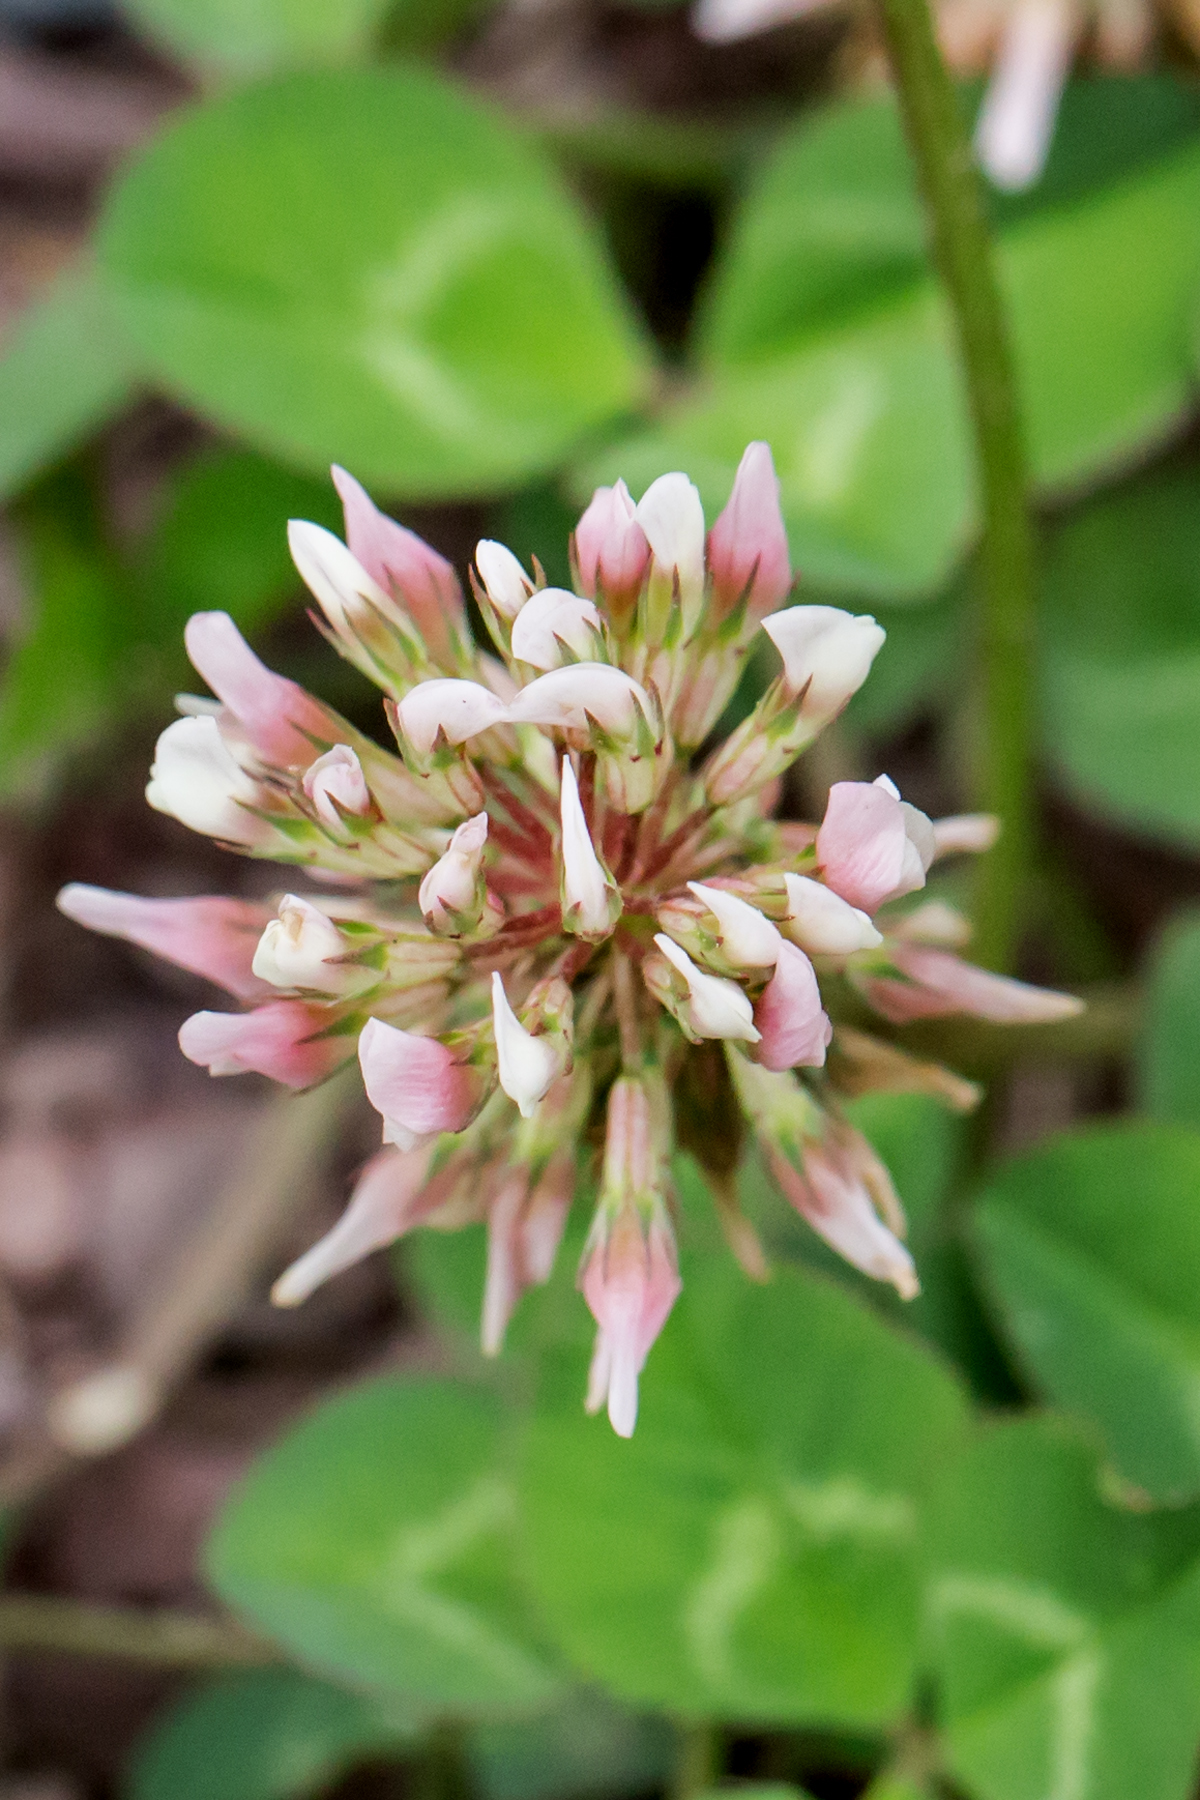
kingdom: Plantae
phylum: Tracheophyta
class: Magnoliopsida
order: Fabales
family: Fabaceae
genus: Trifolium
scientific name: Trifolium repens
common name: White clover
